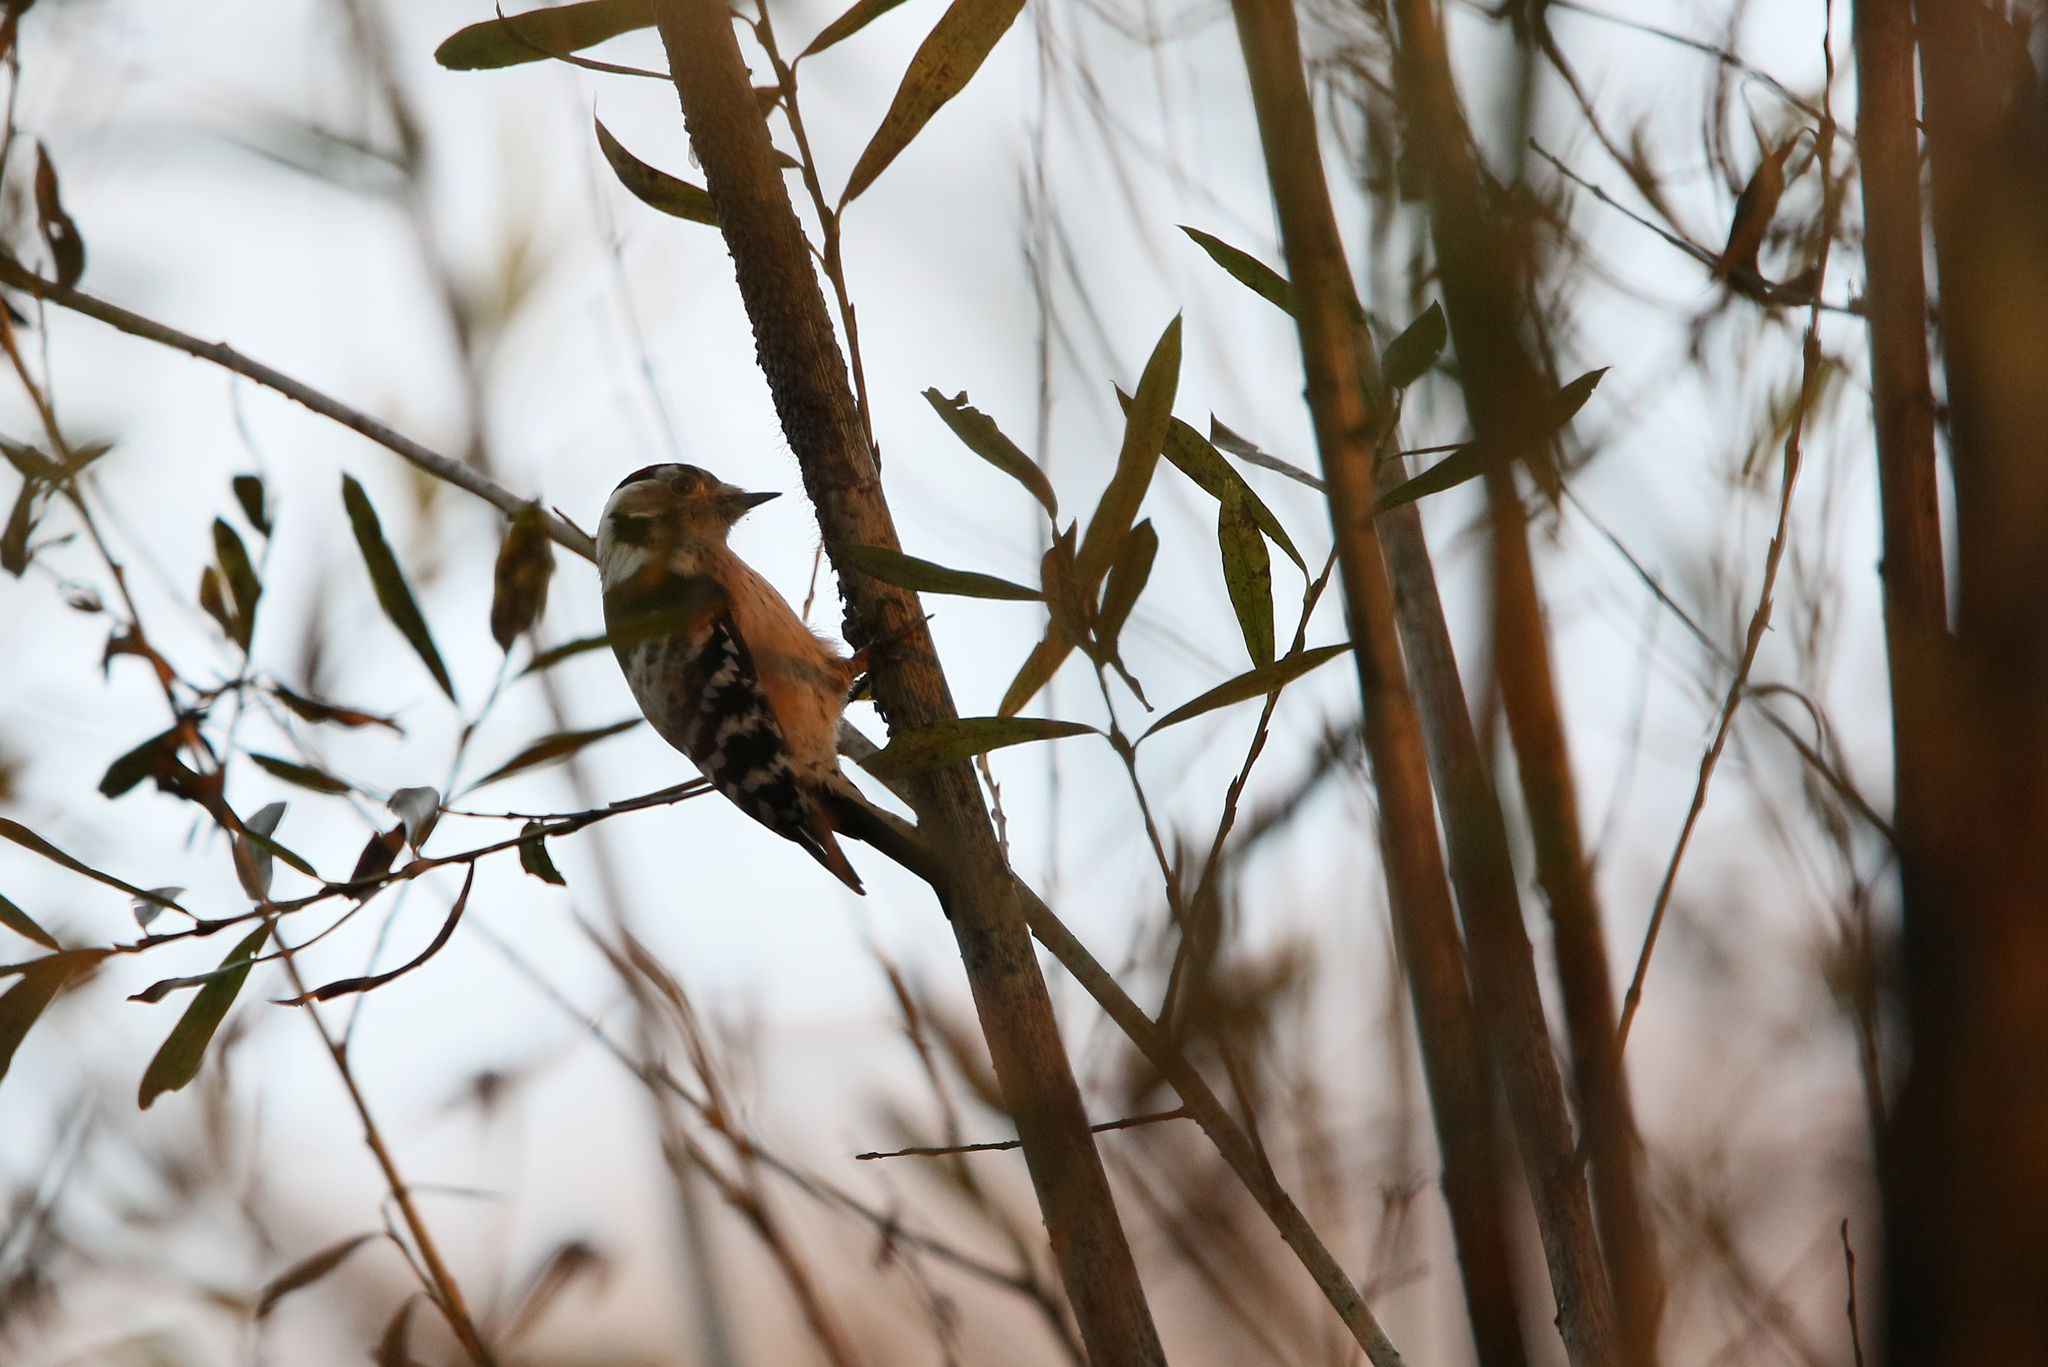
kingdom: Animalia
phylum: Chordata
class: Aves
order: Piciformes
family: Picidae
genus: Dryobates
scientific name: Dryobates minor
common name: Lesser spotted woodpecker
